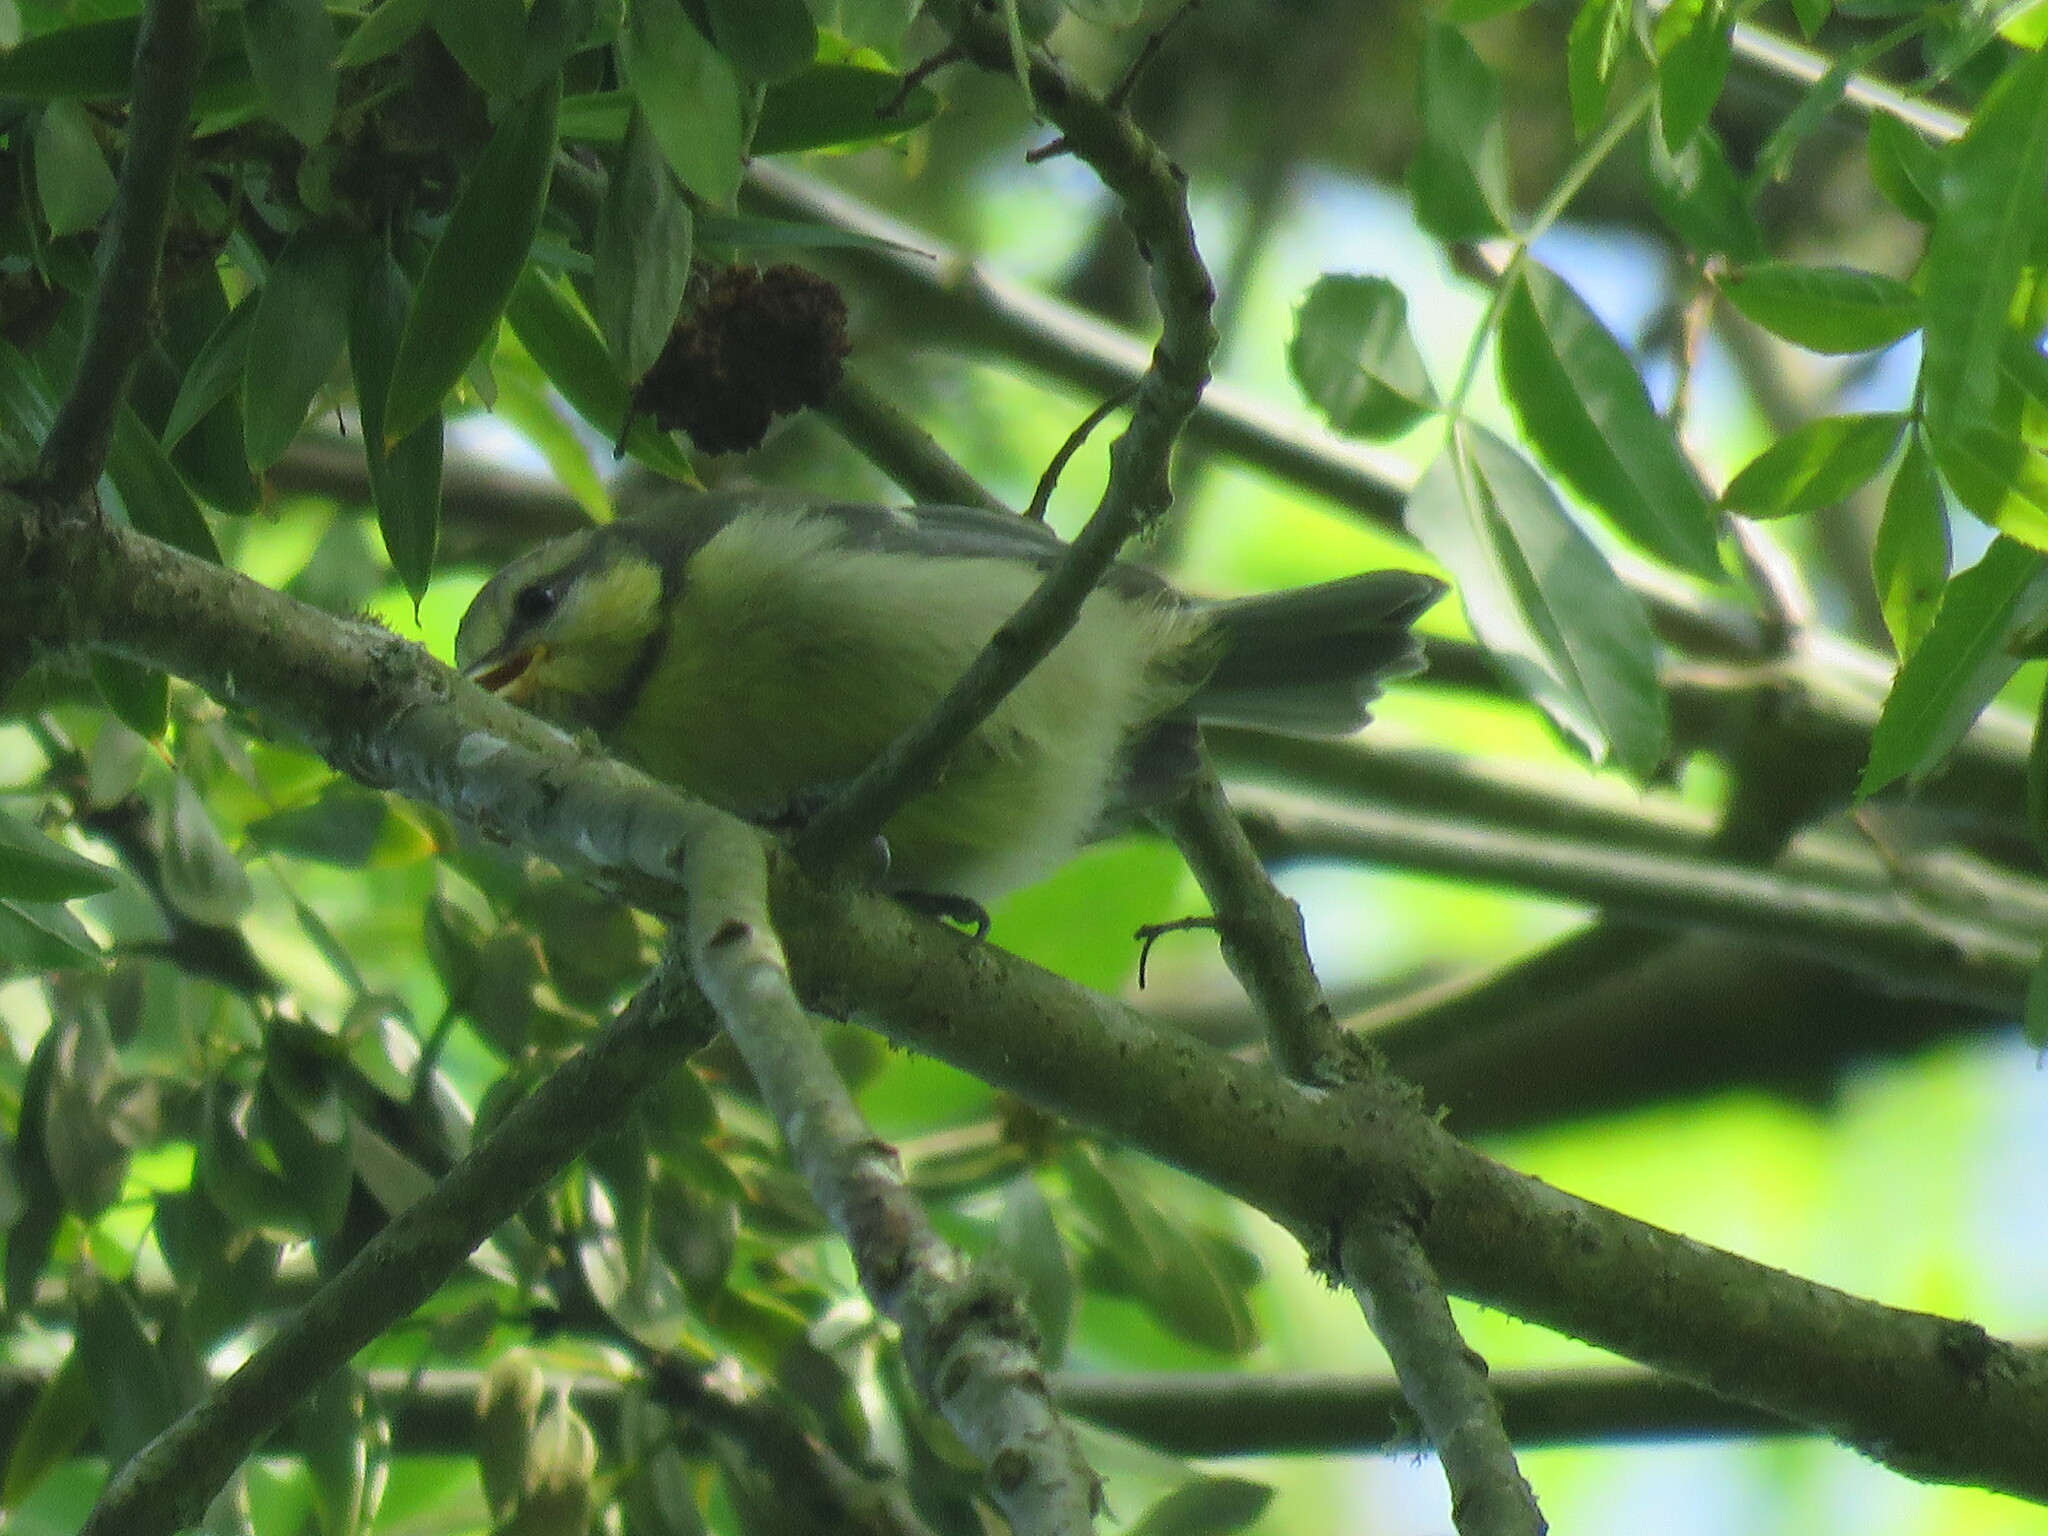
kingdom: Animalia
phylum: Chordata
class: Aves
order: Passeriformes
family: Paridae
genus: Cyanistes
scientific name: Cyanistes caeruleus
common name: Eurasian blue tit
